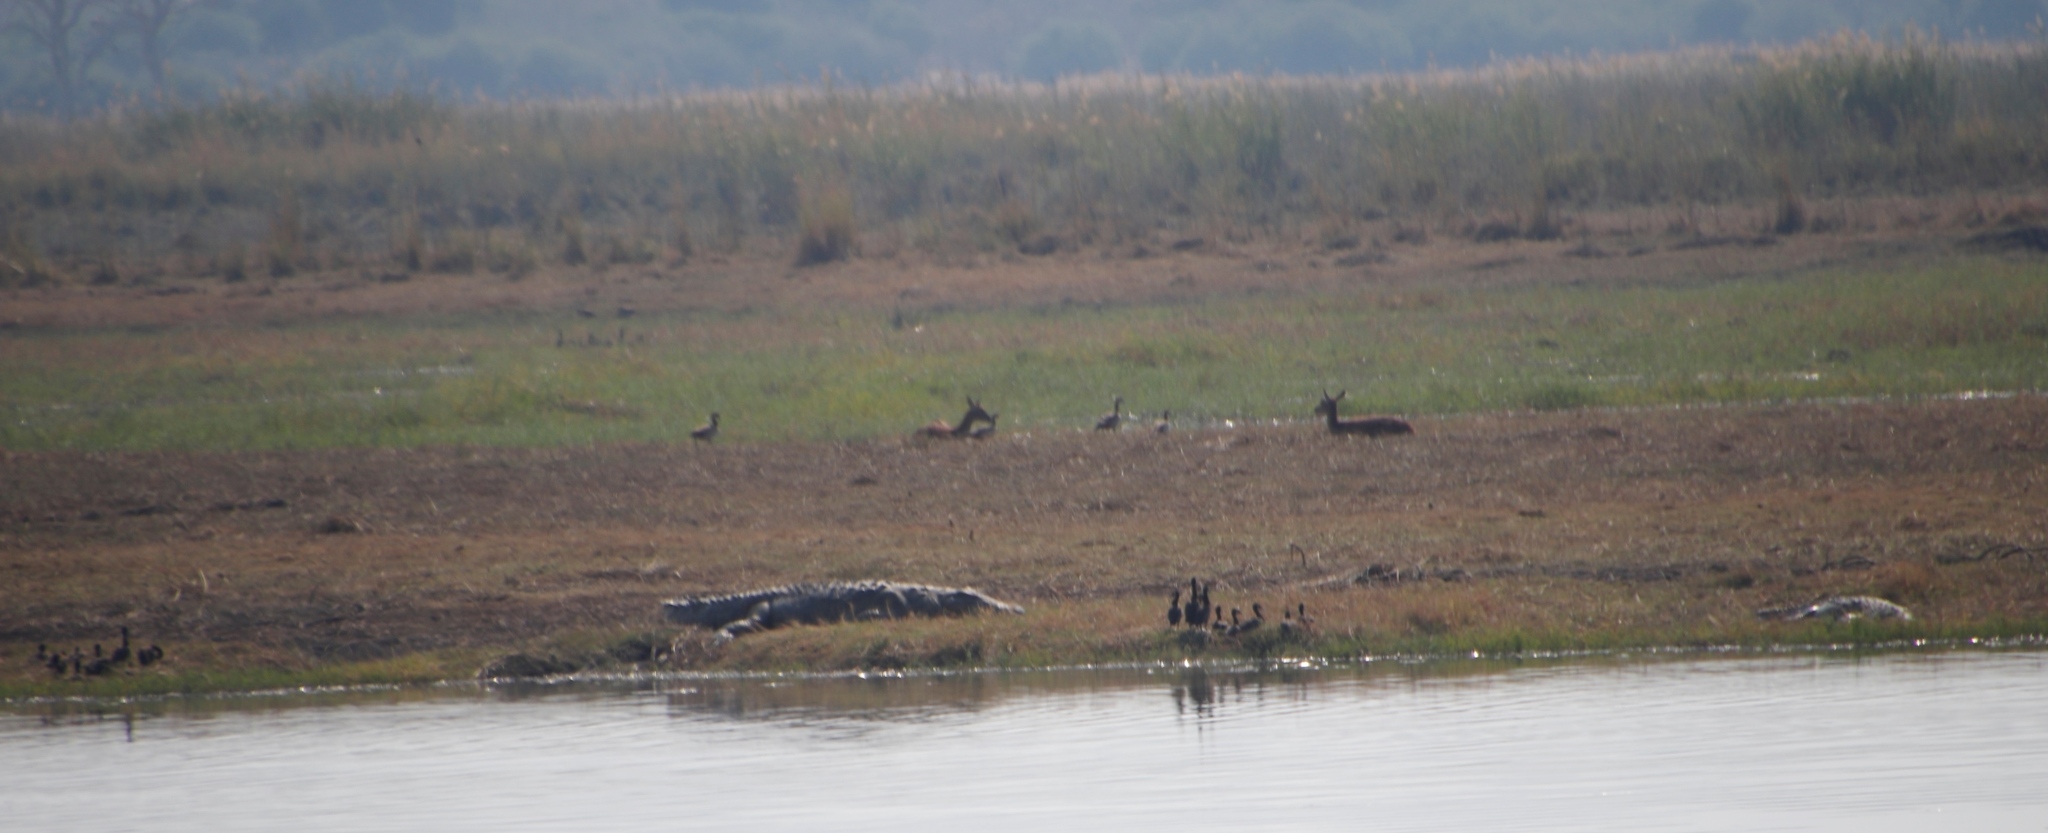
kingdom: Animalia
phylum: Chordata
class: Crocodylia
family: Crocodylidae
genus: Crocodylus
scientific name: Crocodylus niloticus
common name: Nile crocodile
